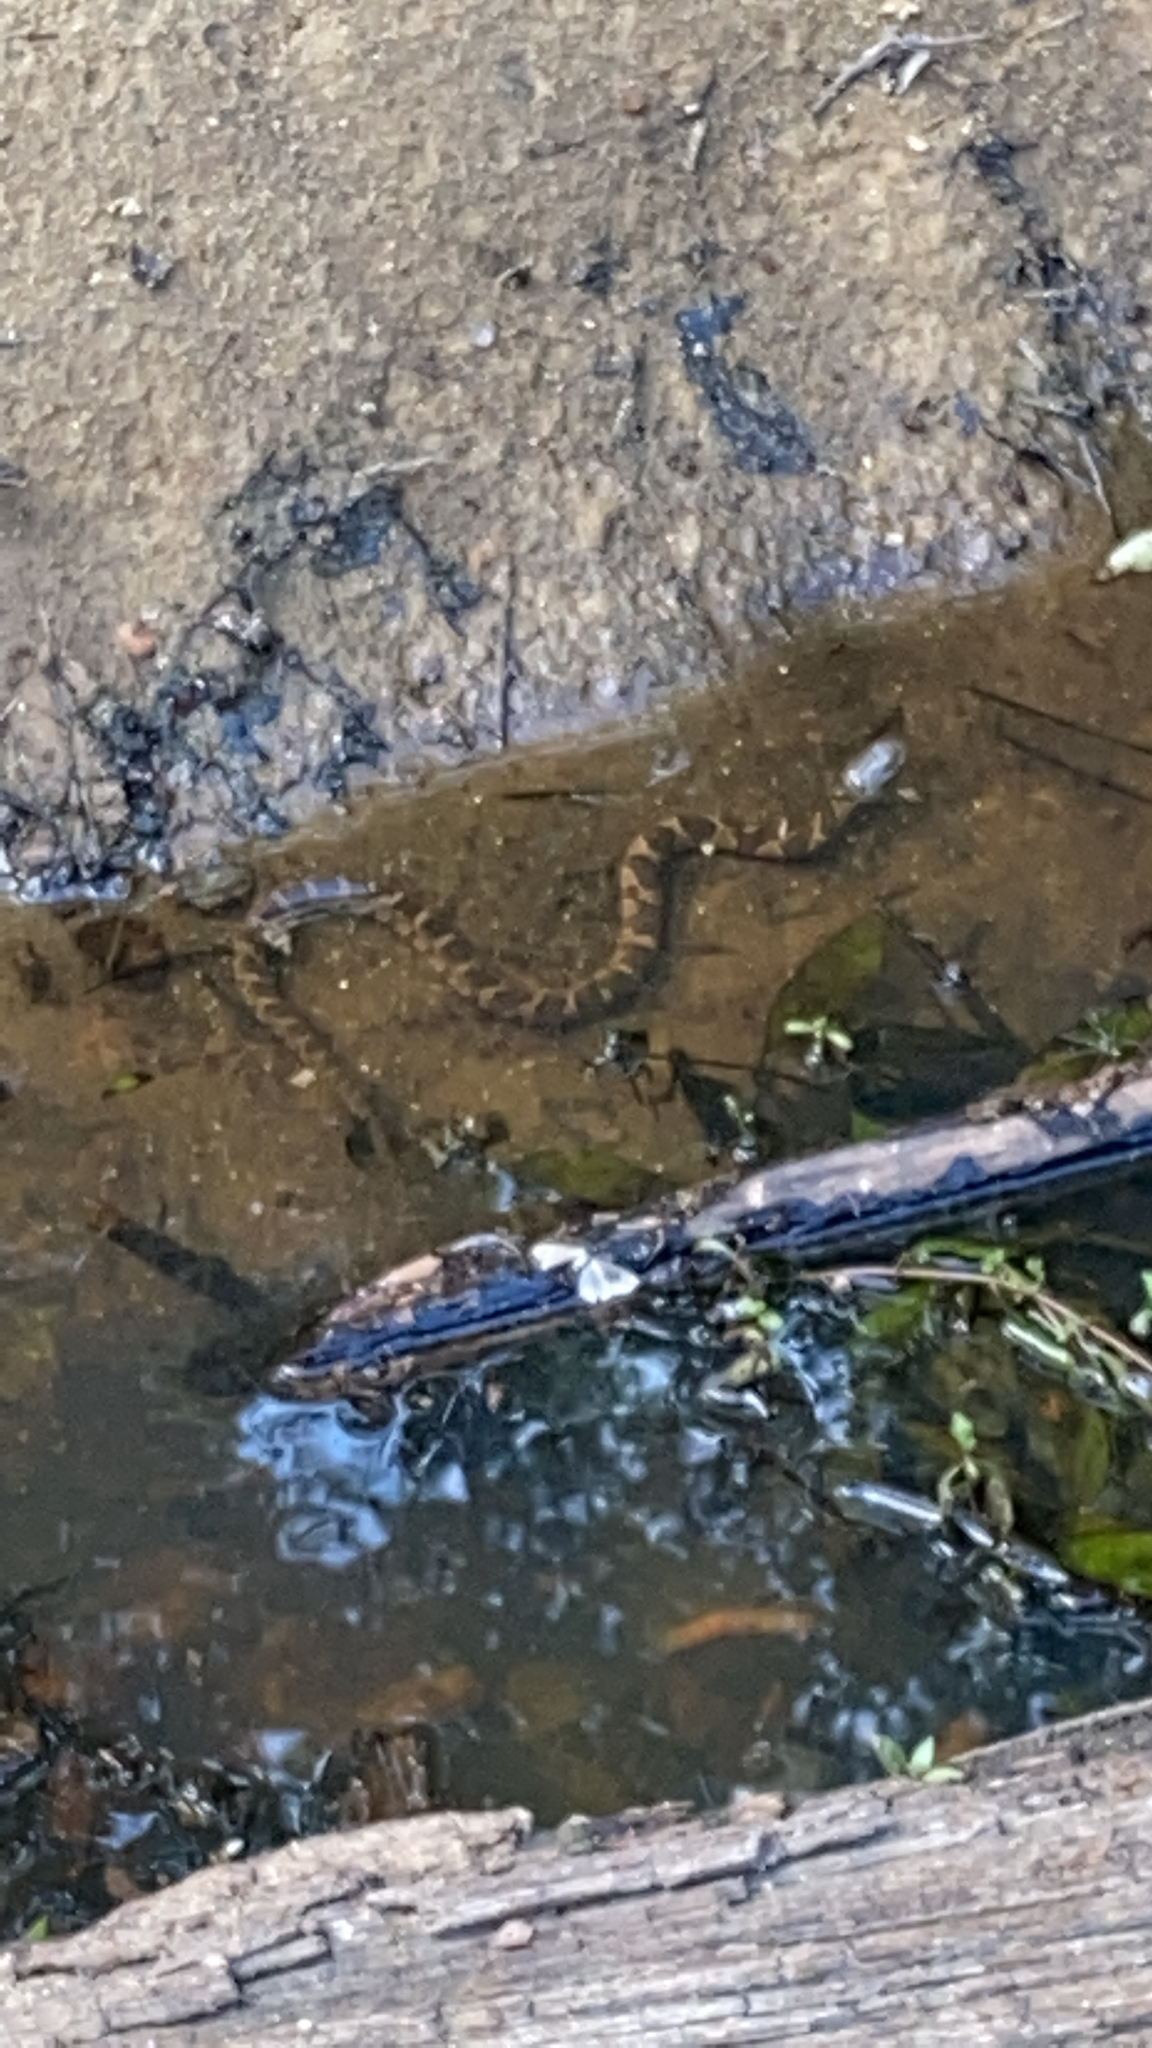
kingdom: Animalia
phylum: Chordata
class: Squamata
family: Colubridae
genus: Nerodia
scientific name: Nerodia sipedon
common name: Northern water snake
